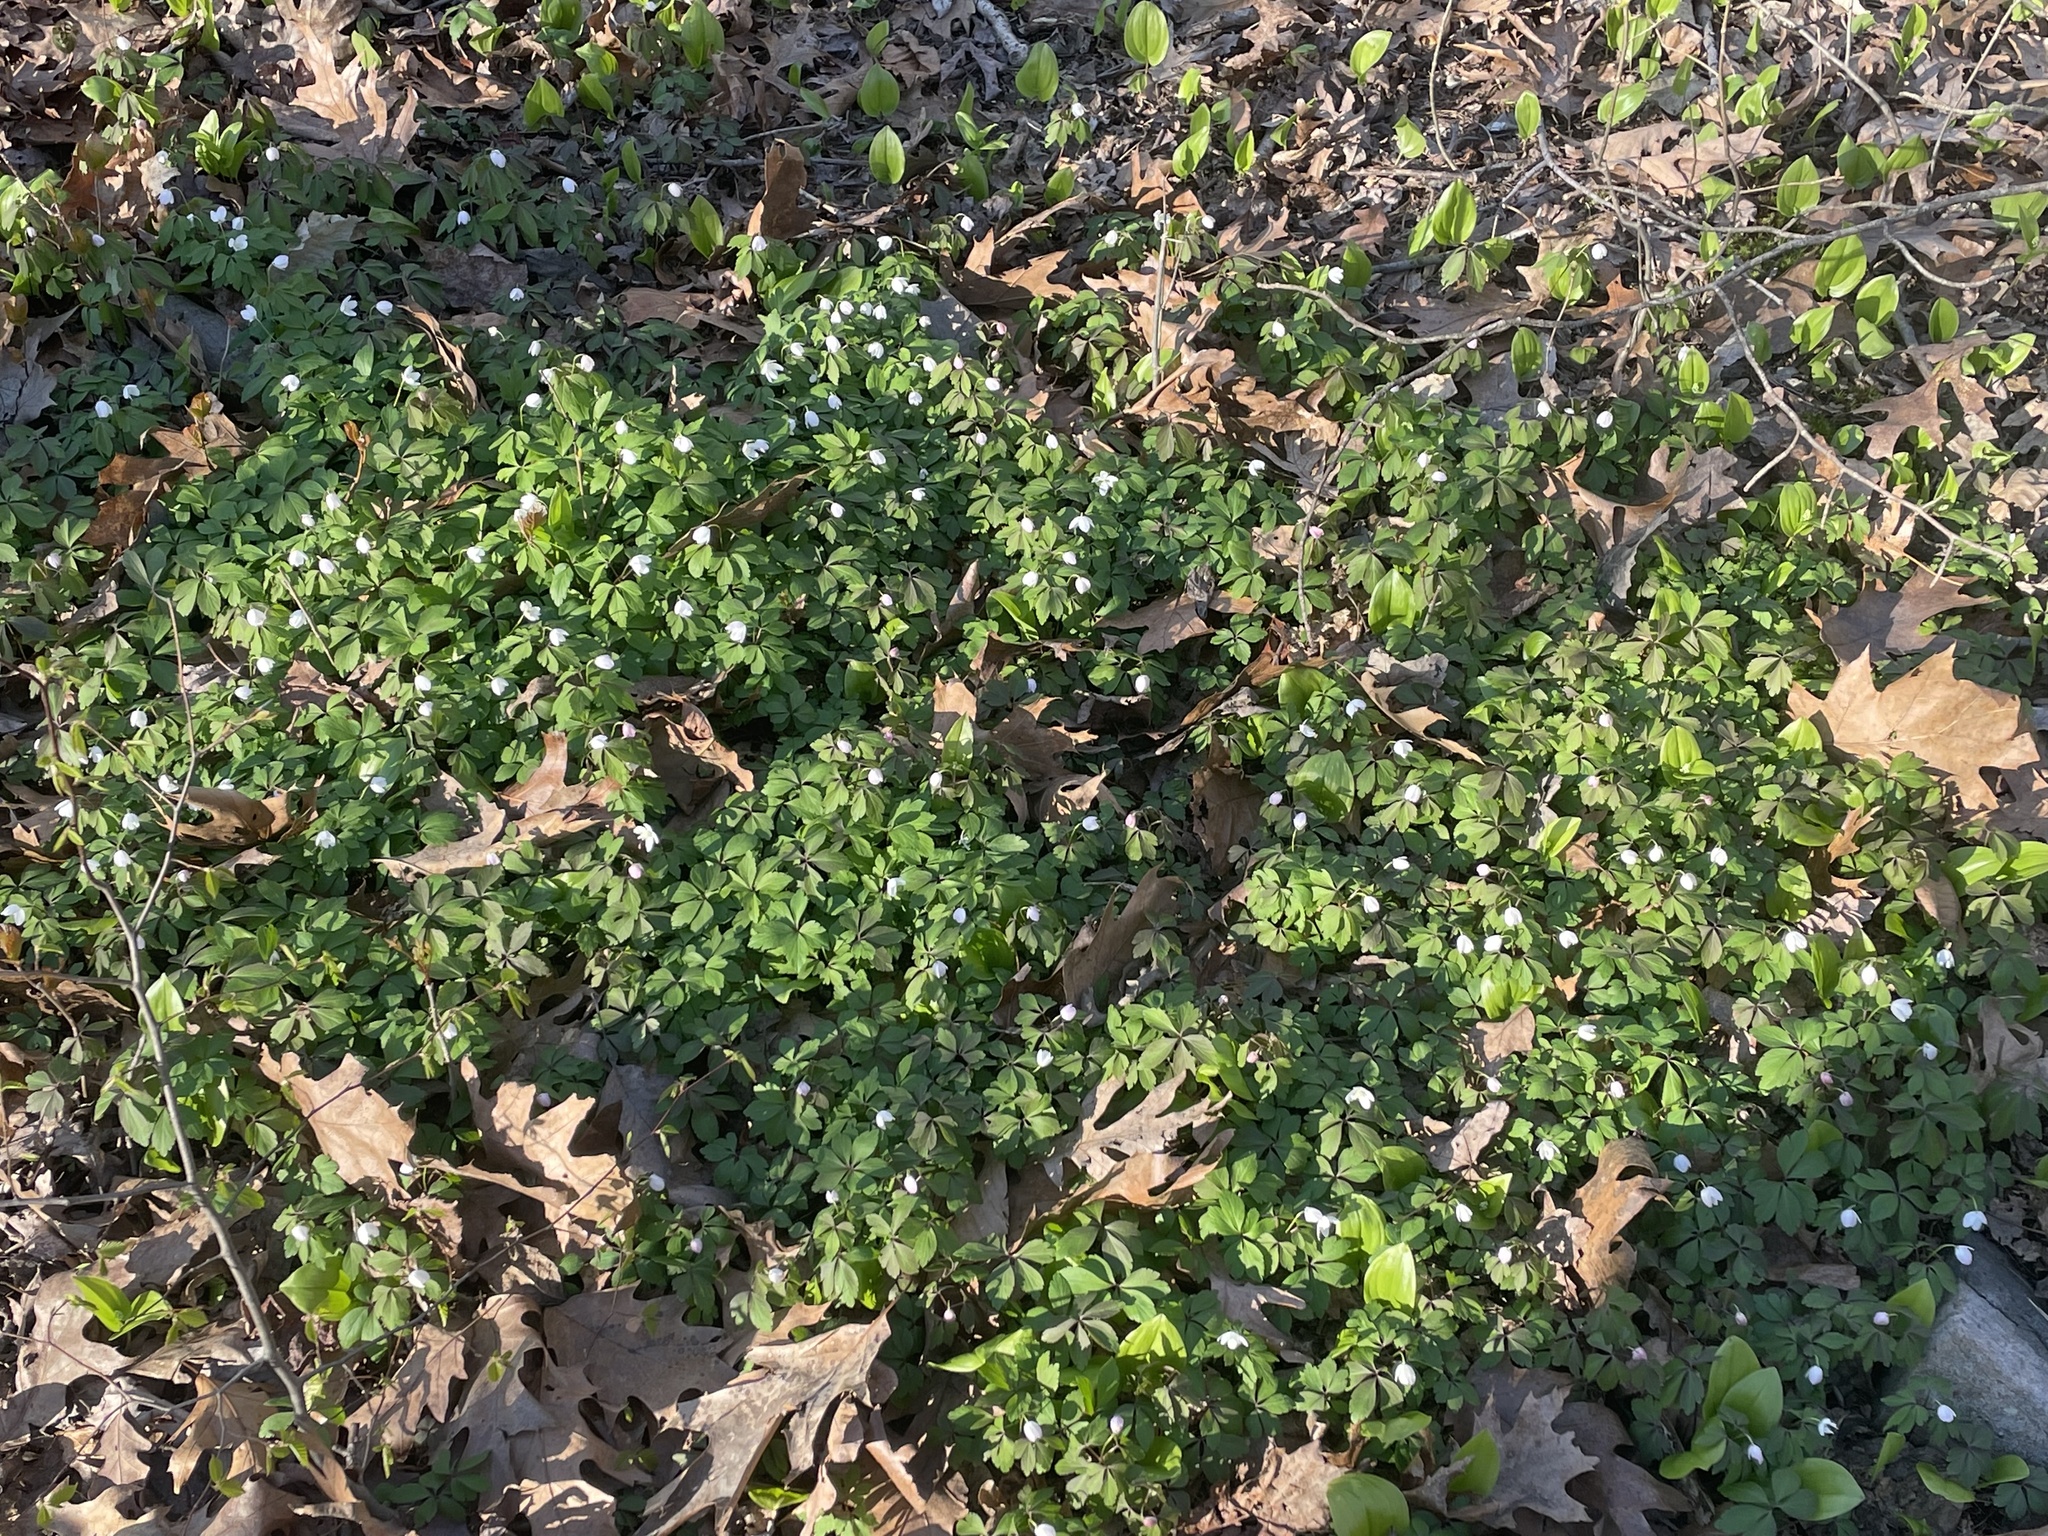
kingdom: Plantae
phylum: Tracheophyta
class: Magnoliopsida
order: Ranunculales
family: Ranunculaceae
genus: Anemone
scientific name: Anemone quinquefolia
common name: Wood anemone
